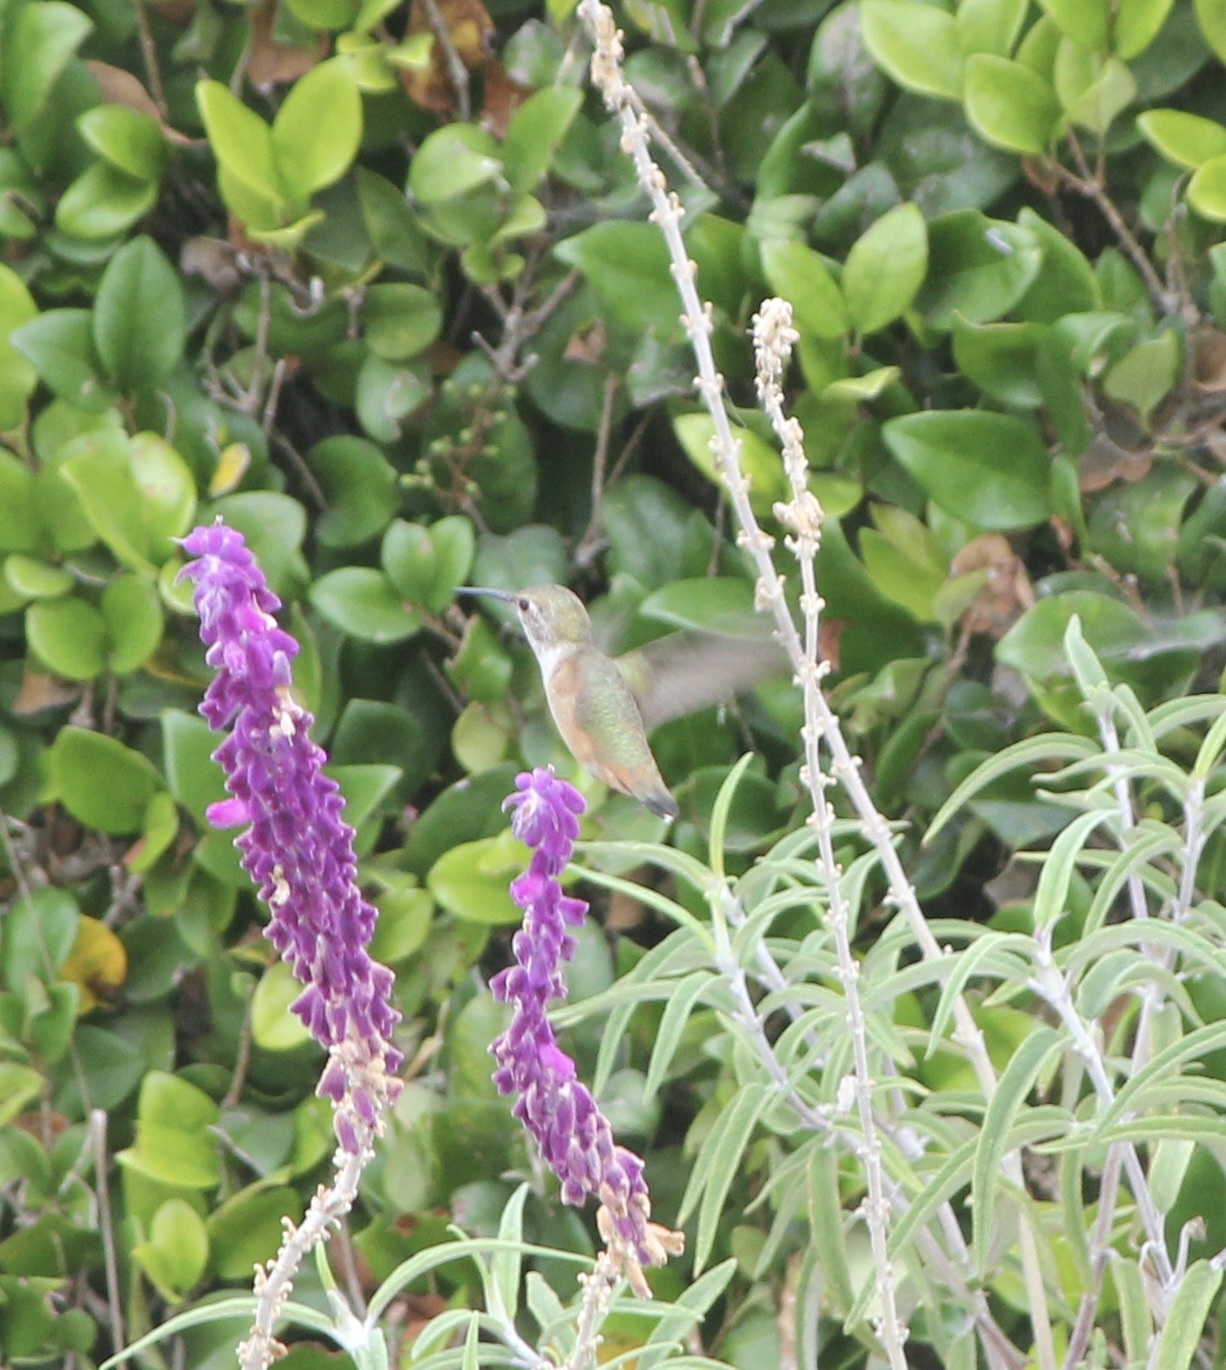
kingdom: Animalia
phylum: Chordata
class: Aves
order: Apodiformes
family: Trochilidae
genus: Selasphorus
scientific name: Selasphorus
